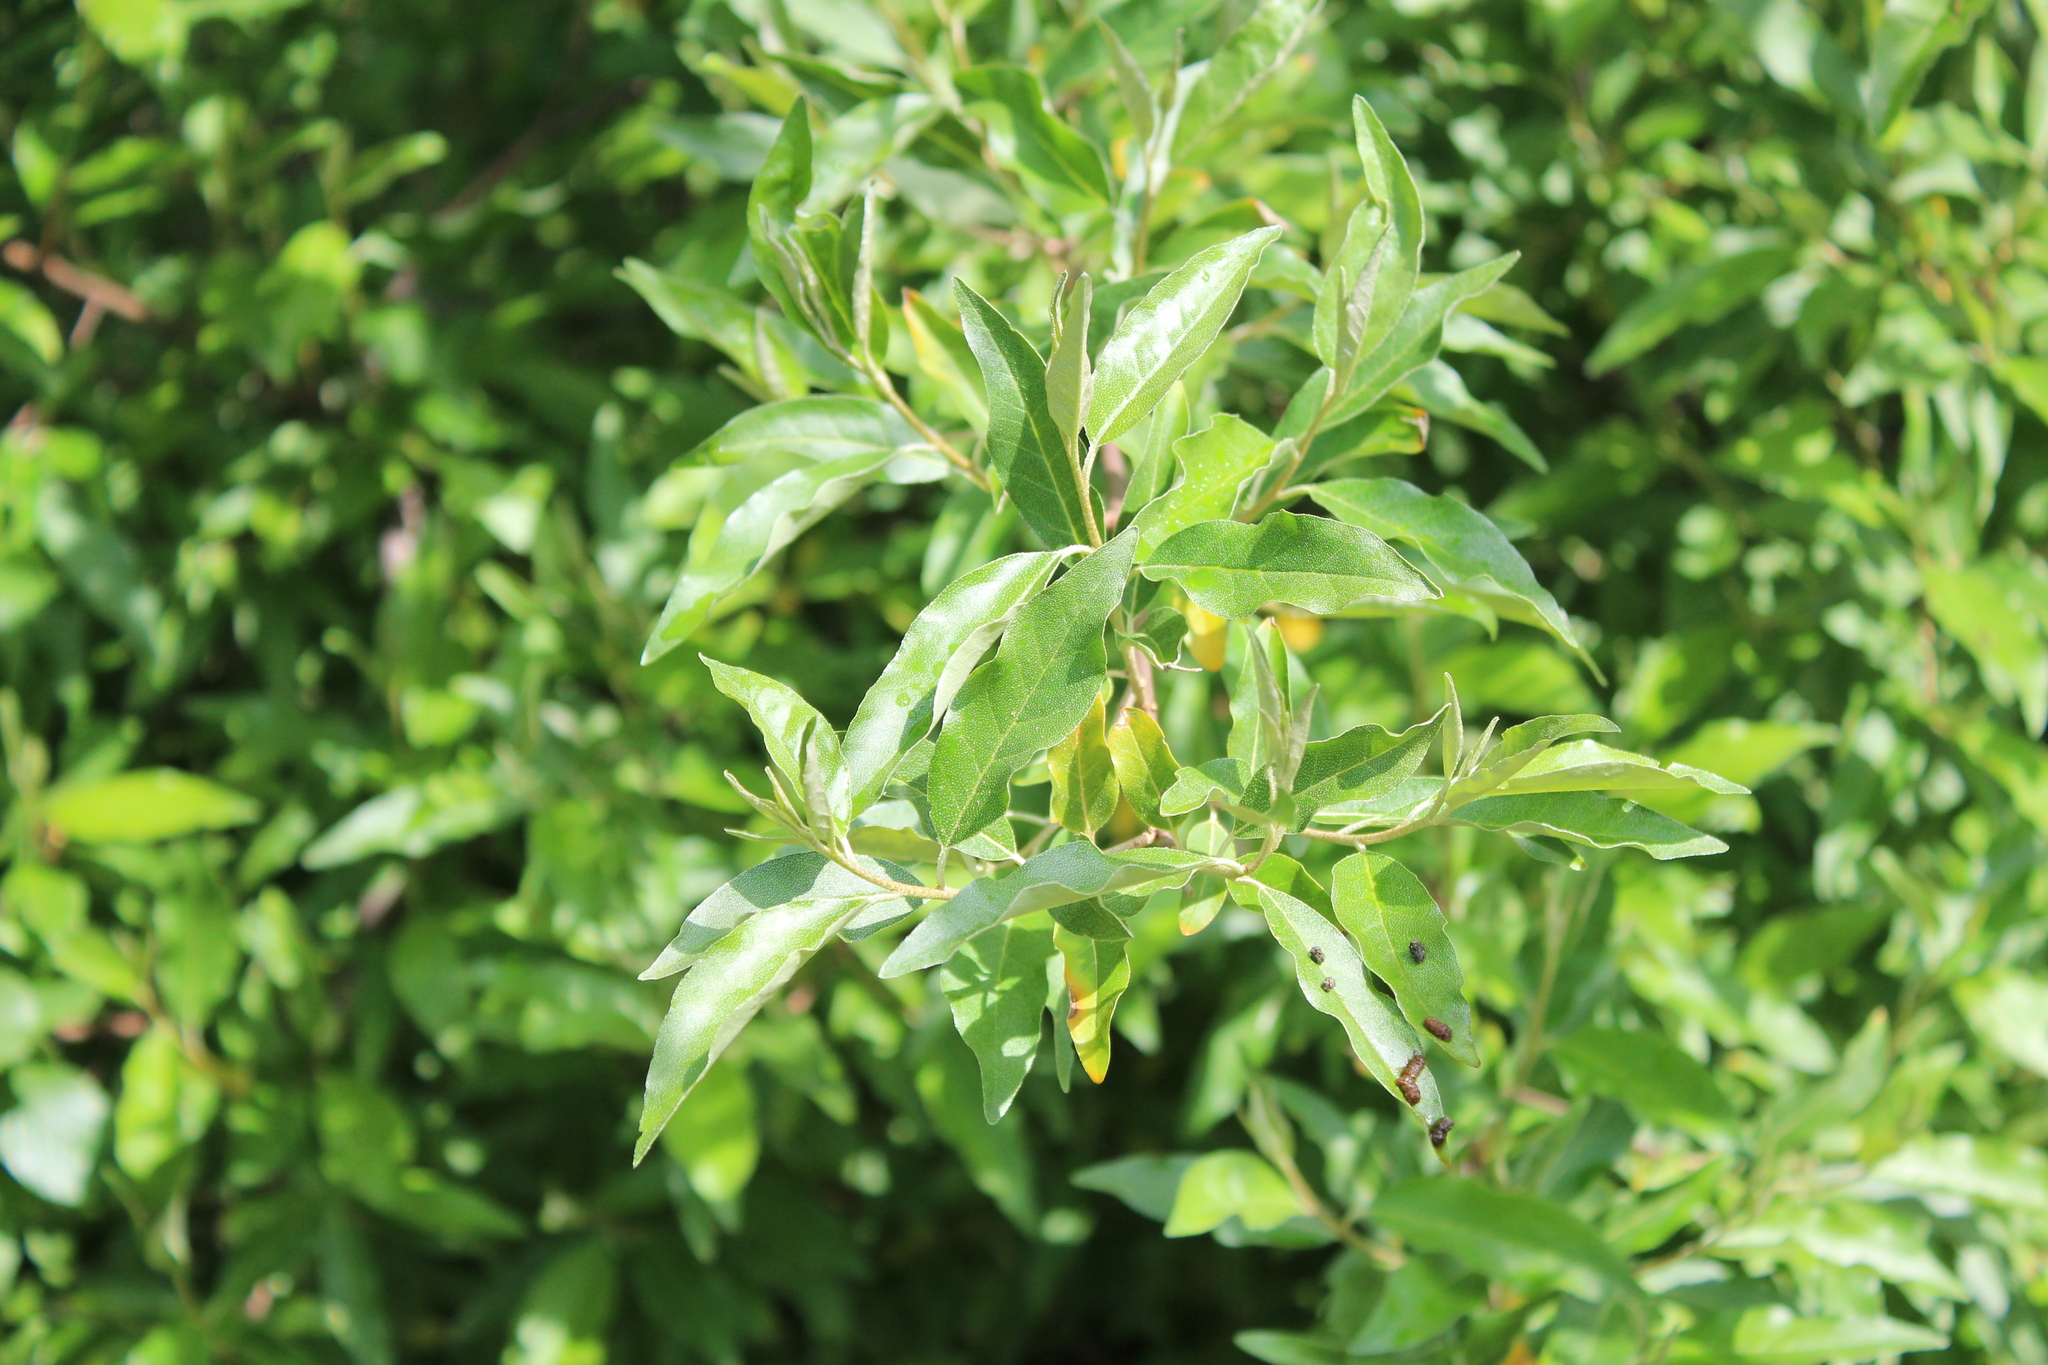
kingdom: Plantae
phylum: Tracheophyta
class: Magnoliopsida
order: Rosales
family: Elaeagnaceae
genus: Elaeagnus
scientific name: Elaeagnus umbellata
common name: Autumn olive
